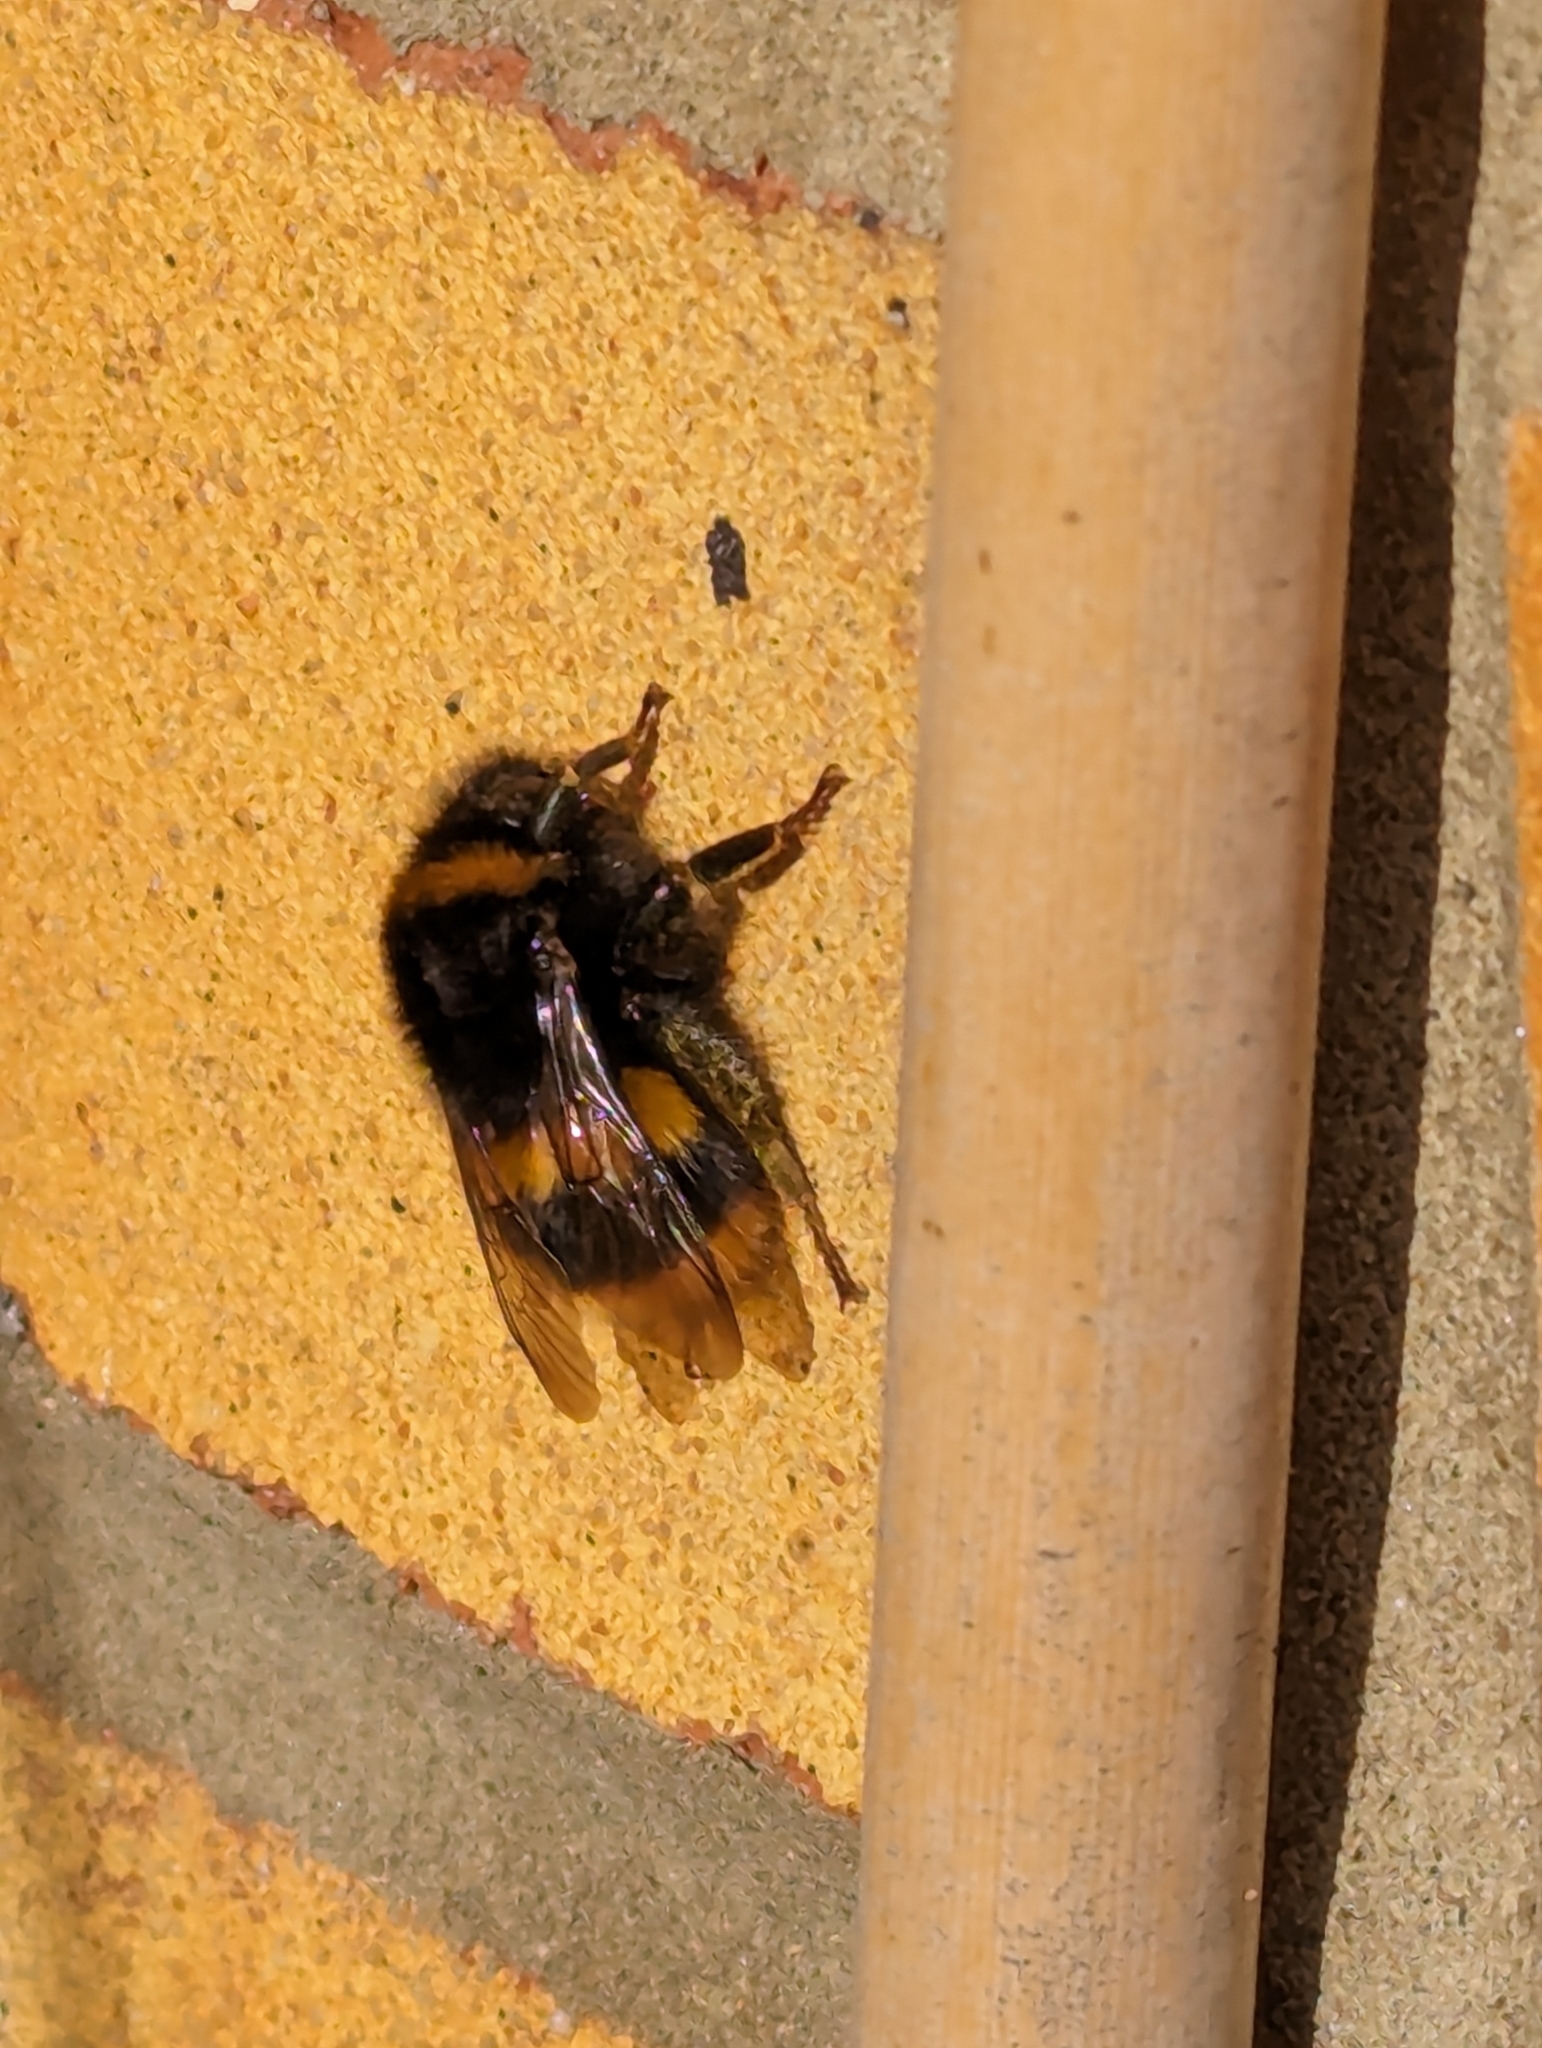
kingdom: Animalia
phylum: Arthropoda
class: Insecta
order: Hymenoptera
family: Apidae
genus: Bombus
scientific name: Bombus terrestris
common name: Buff-tailed bumblebee
